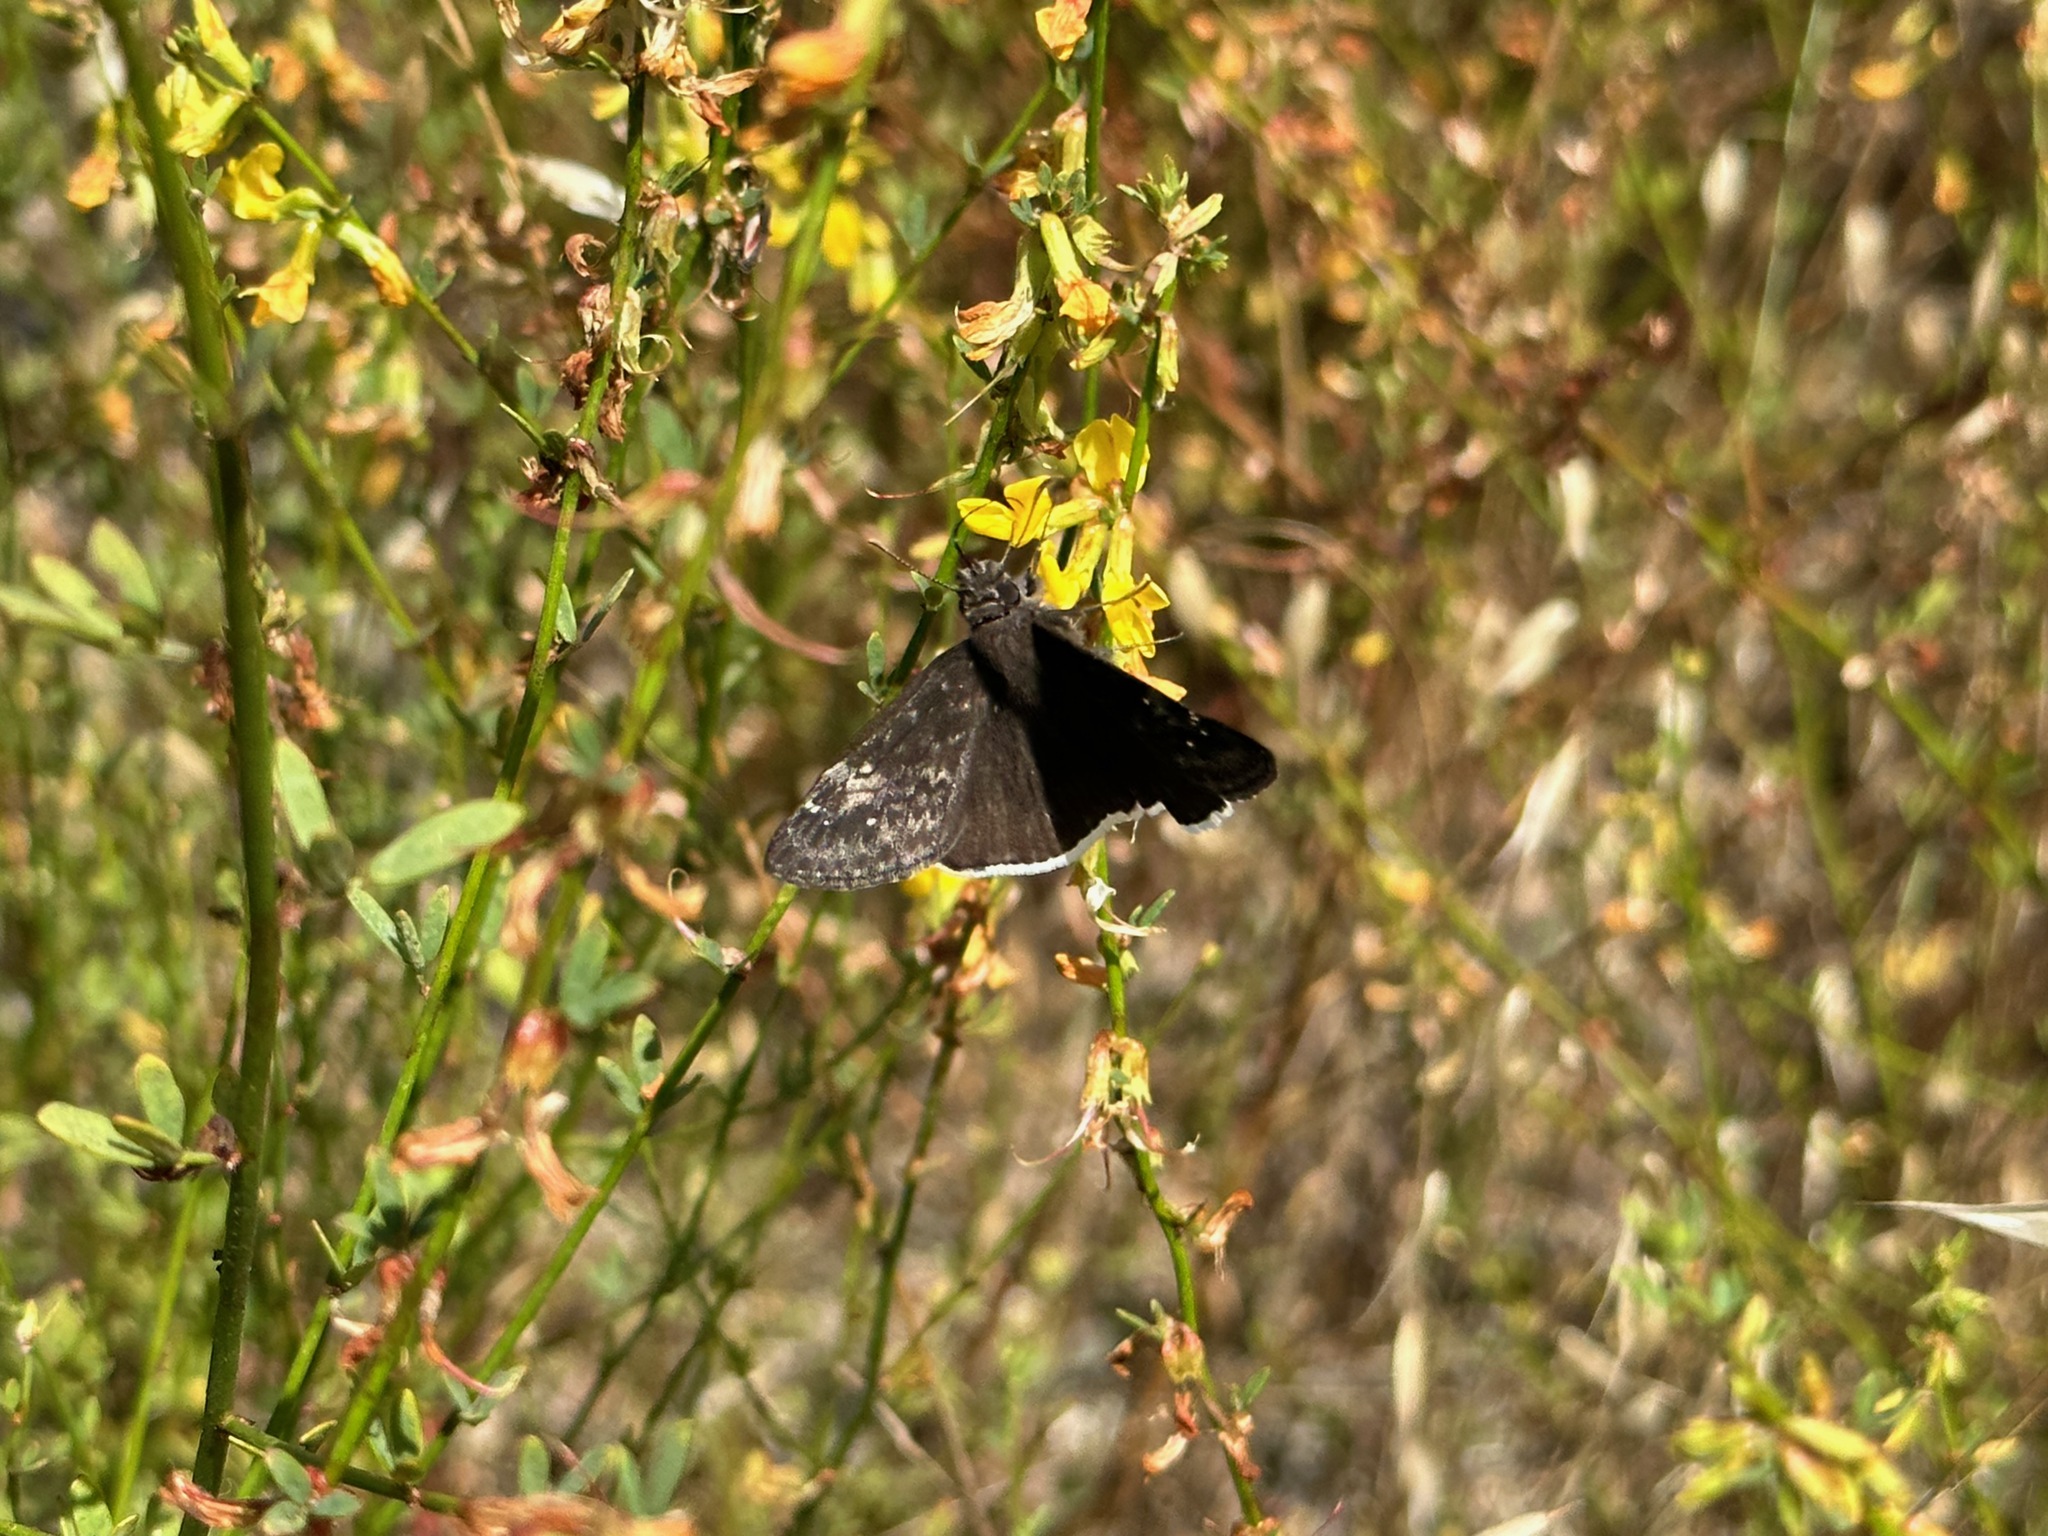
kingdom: Animalia
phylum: Arthropoda
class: Insecta
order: Lepidoptera
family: Hesperiidae
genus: Erynnis
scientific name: Erynnis funeralis
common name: Funereal duskywing
